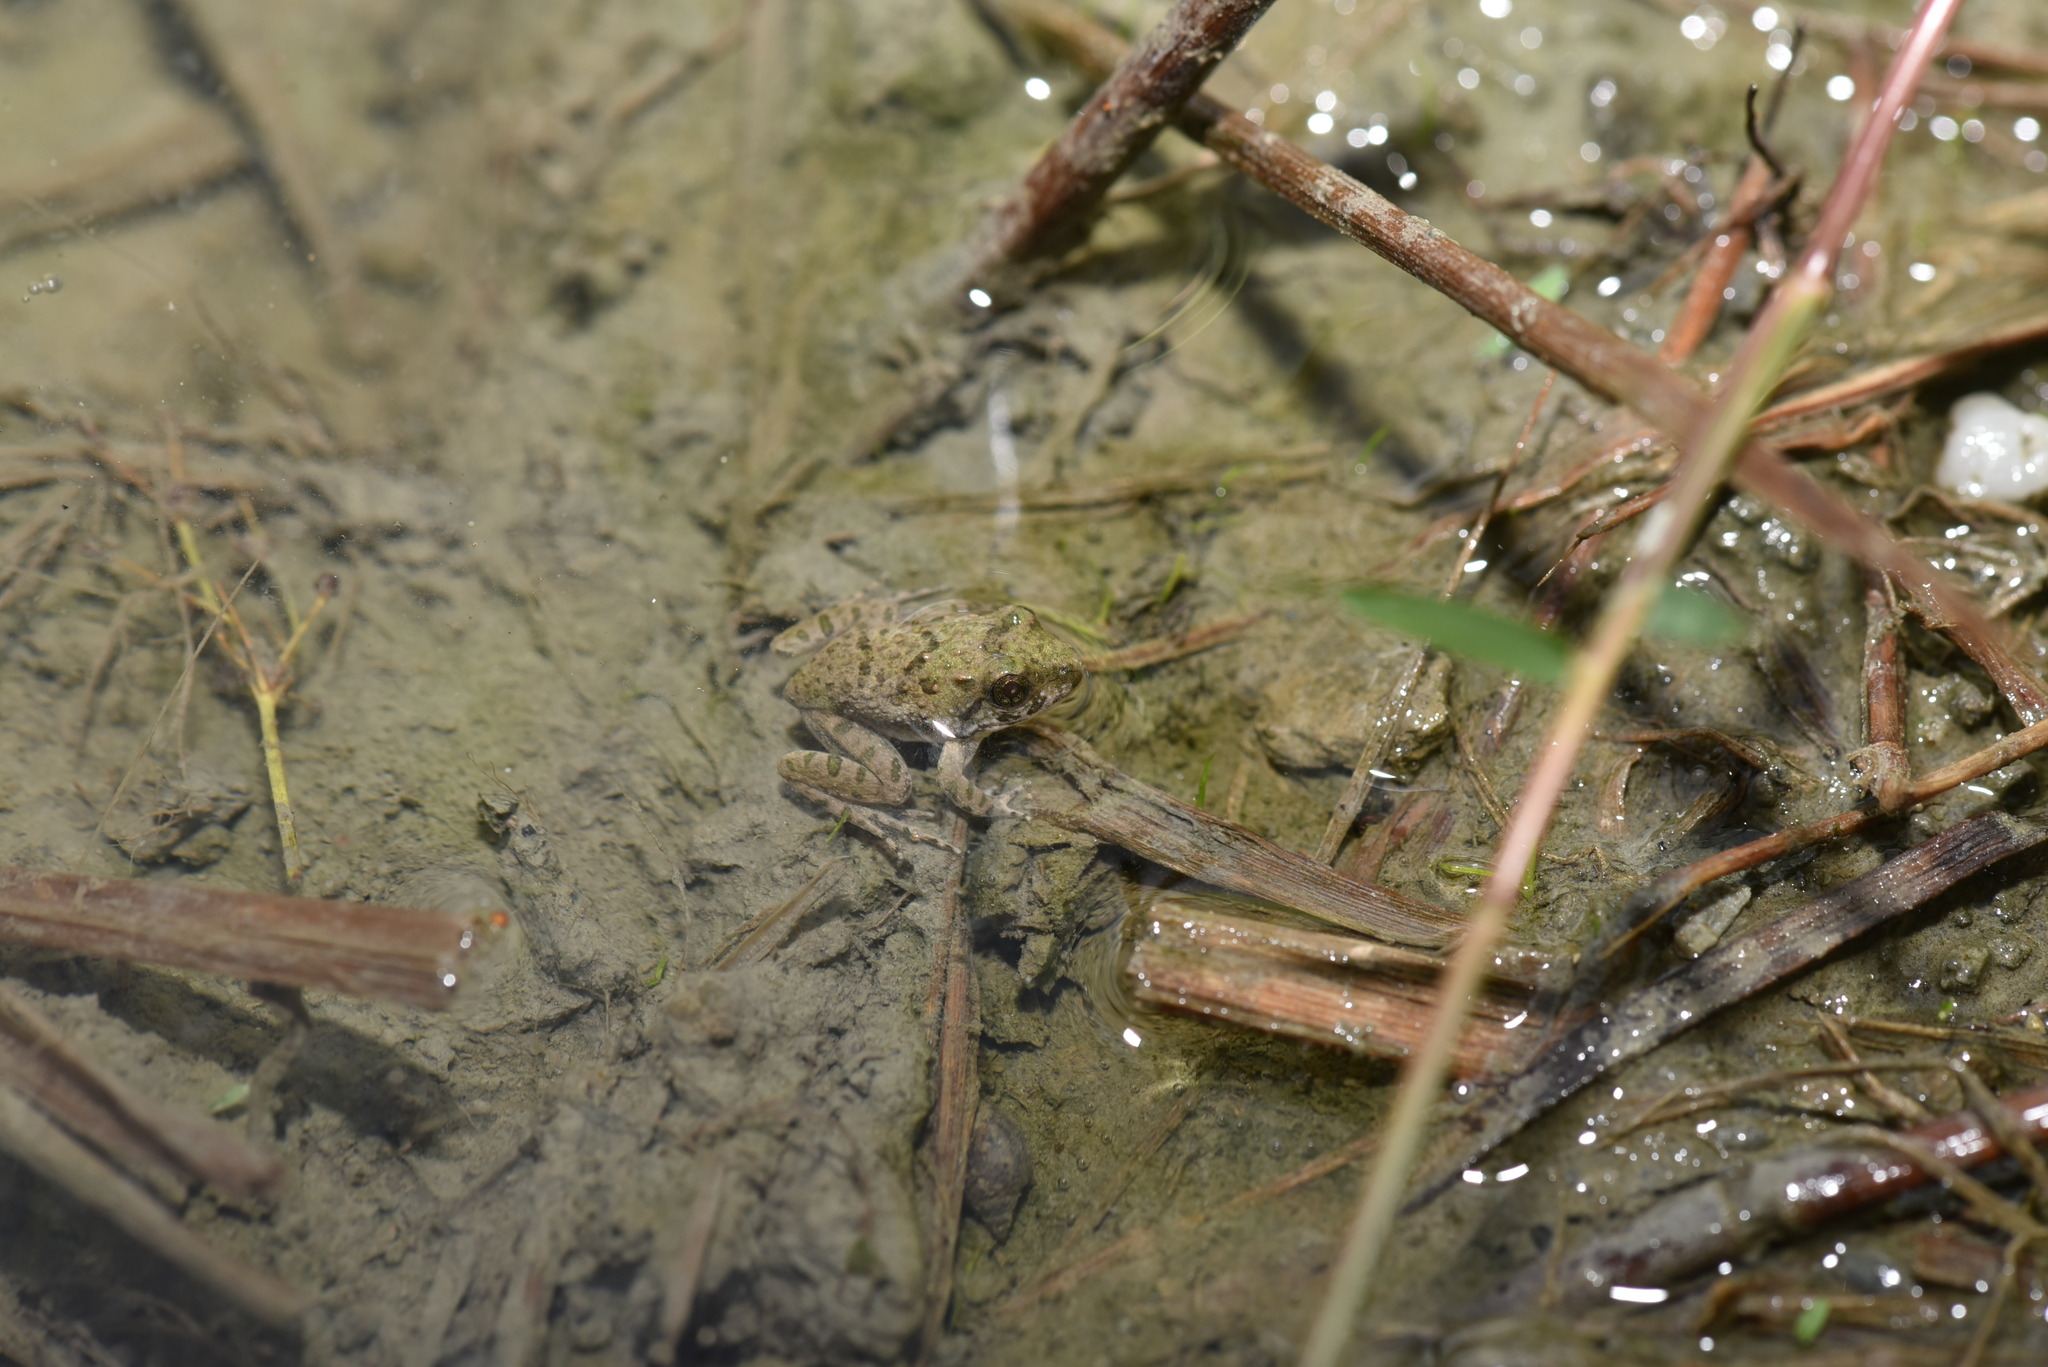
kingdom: Animalia
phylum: Chordata
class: Amphibia
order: Anura
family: Dicroglossidae
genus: Fejervarya
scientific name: Fejervarya limnocharis
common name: Asian grass frog/common pond frog/field frog/grass frog/indian rice frog
